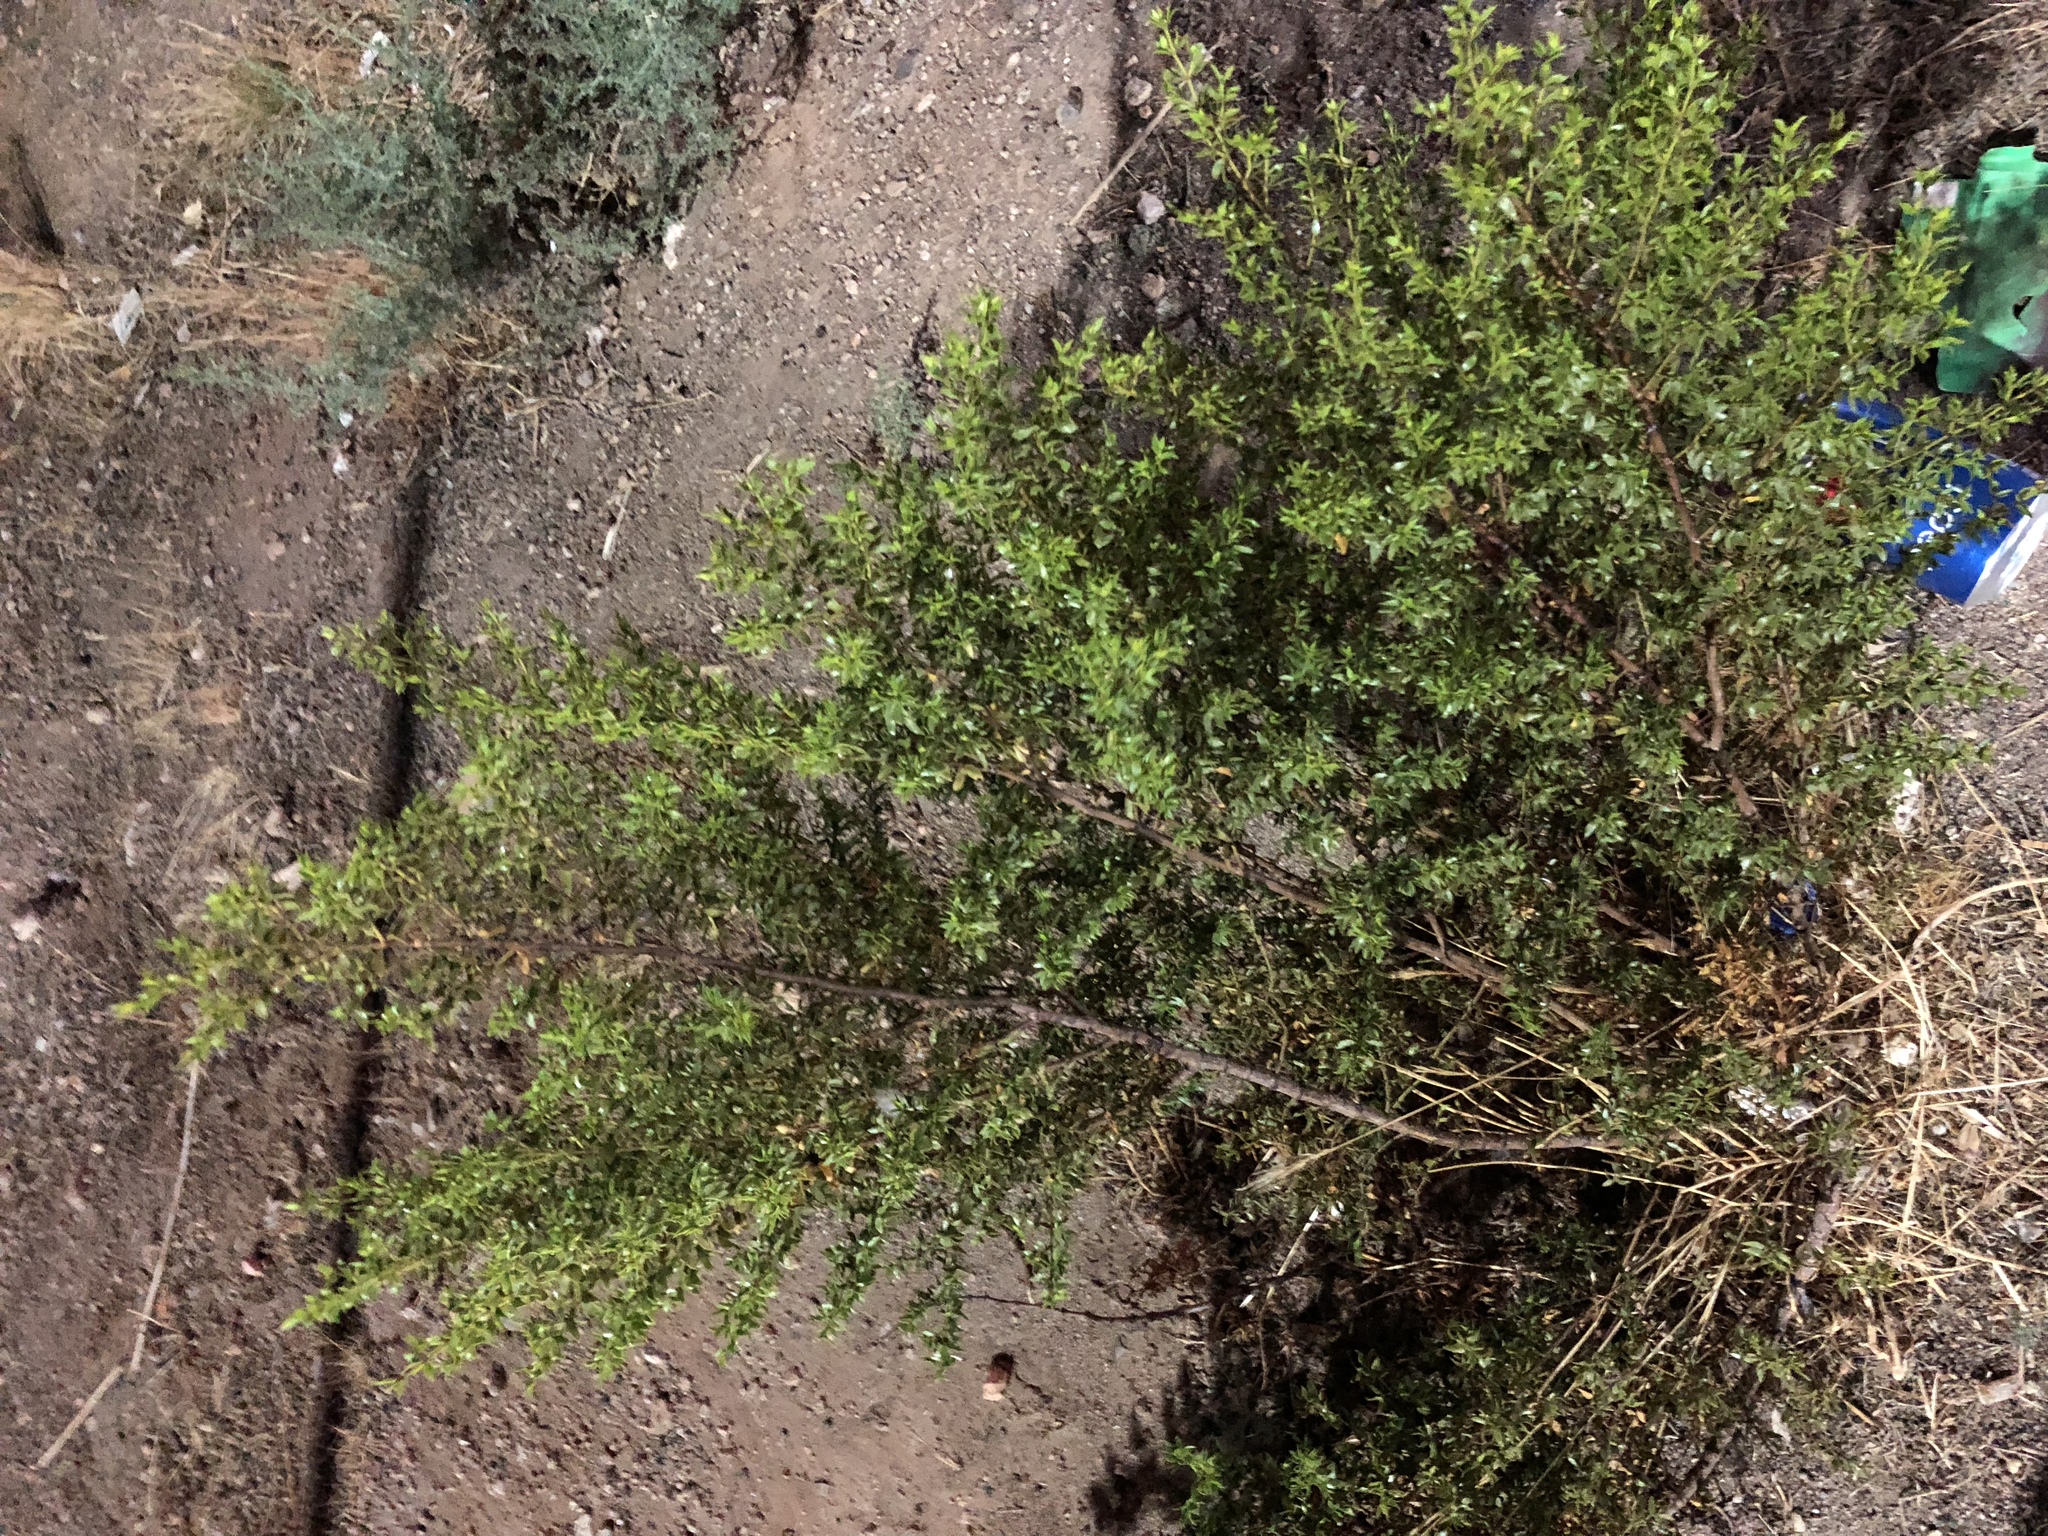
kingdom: Plantae
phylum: Tracheophyta
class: Magnoliopsida
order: Zygophyllales
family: Zygophyllaceae
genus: Larrea
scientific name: Larrea tridentata
